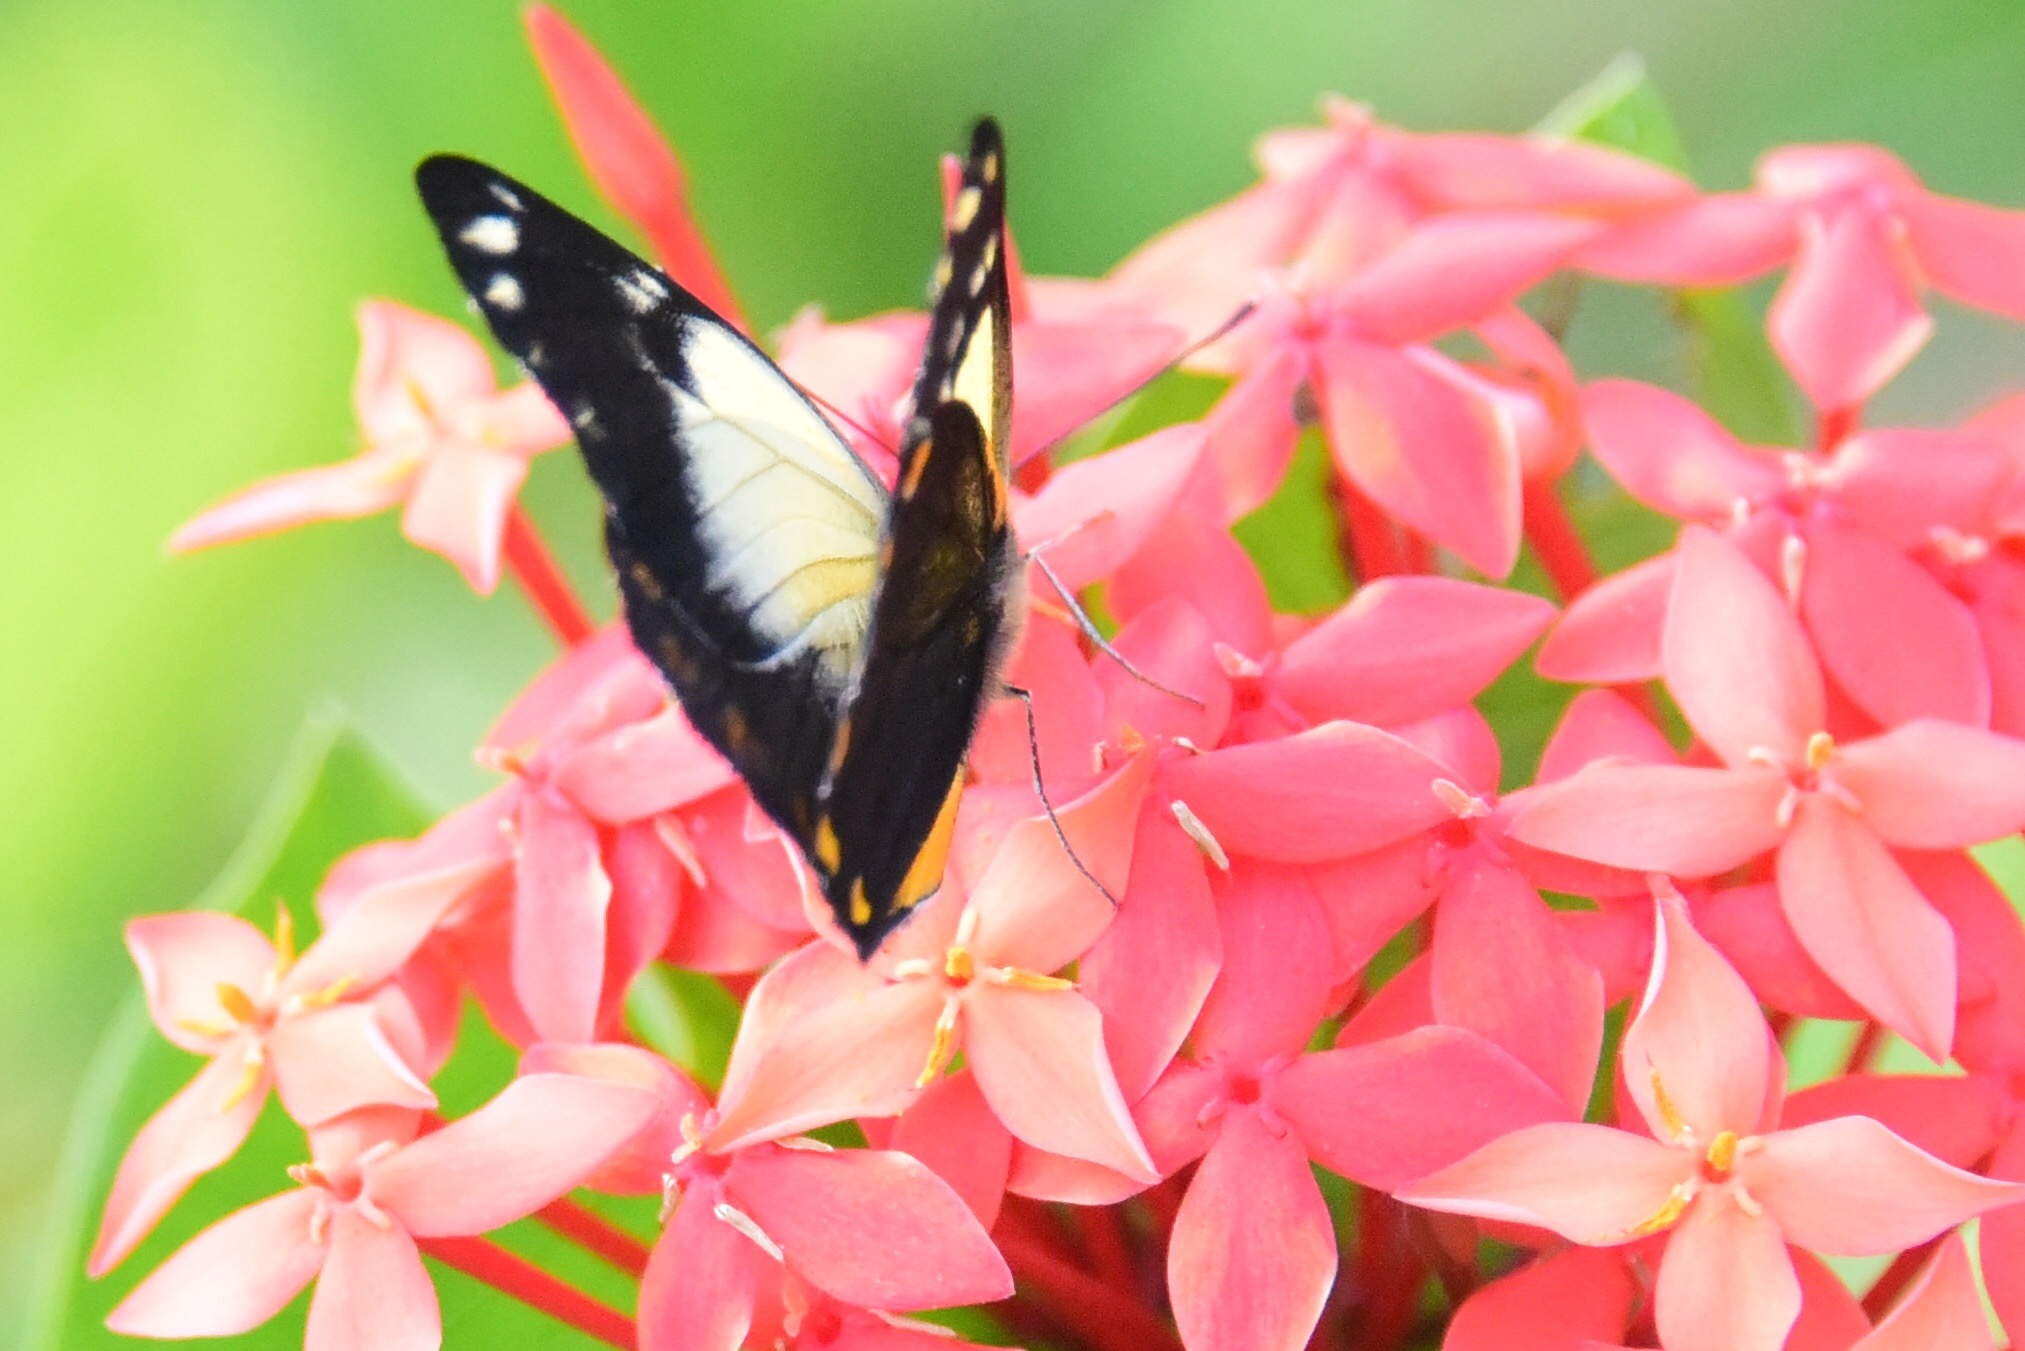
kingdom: Animalia
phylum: Arthropoda
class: Insecta
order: Lepidoptera
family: Pieridae
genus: Belenois
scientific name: Belenois java
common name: Caper white
